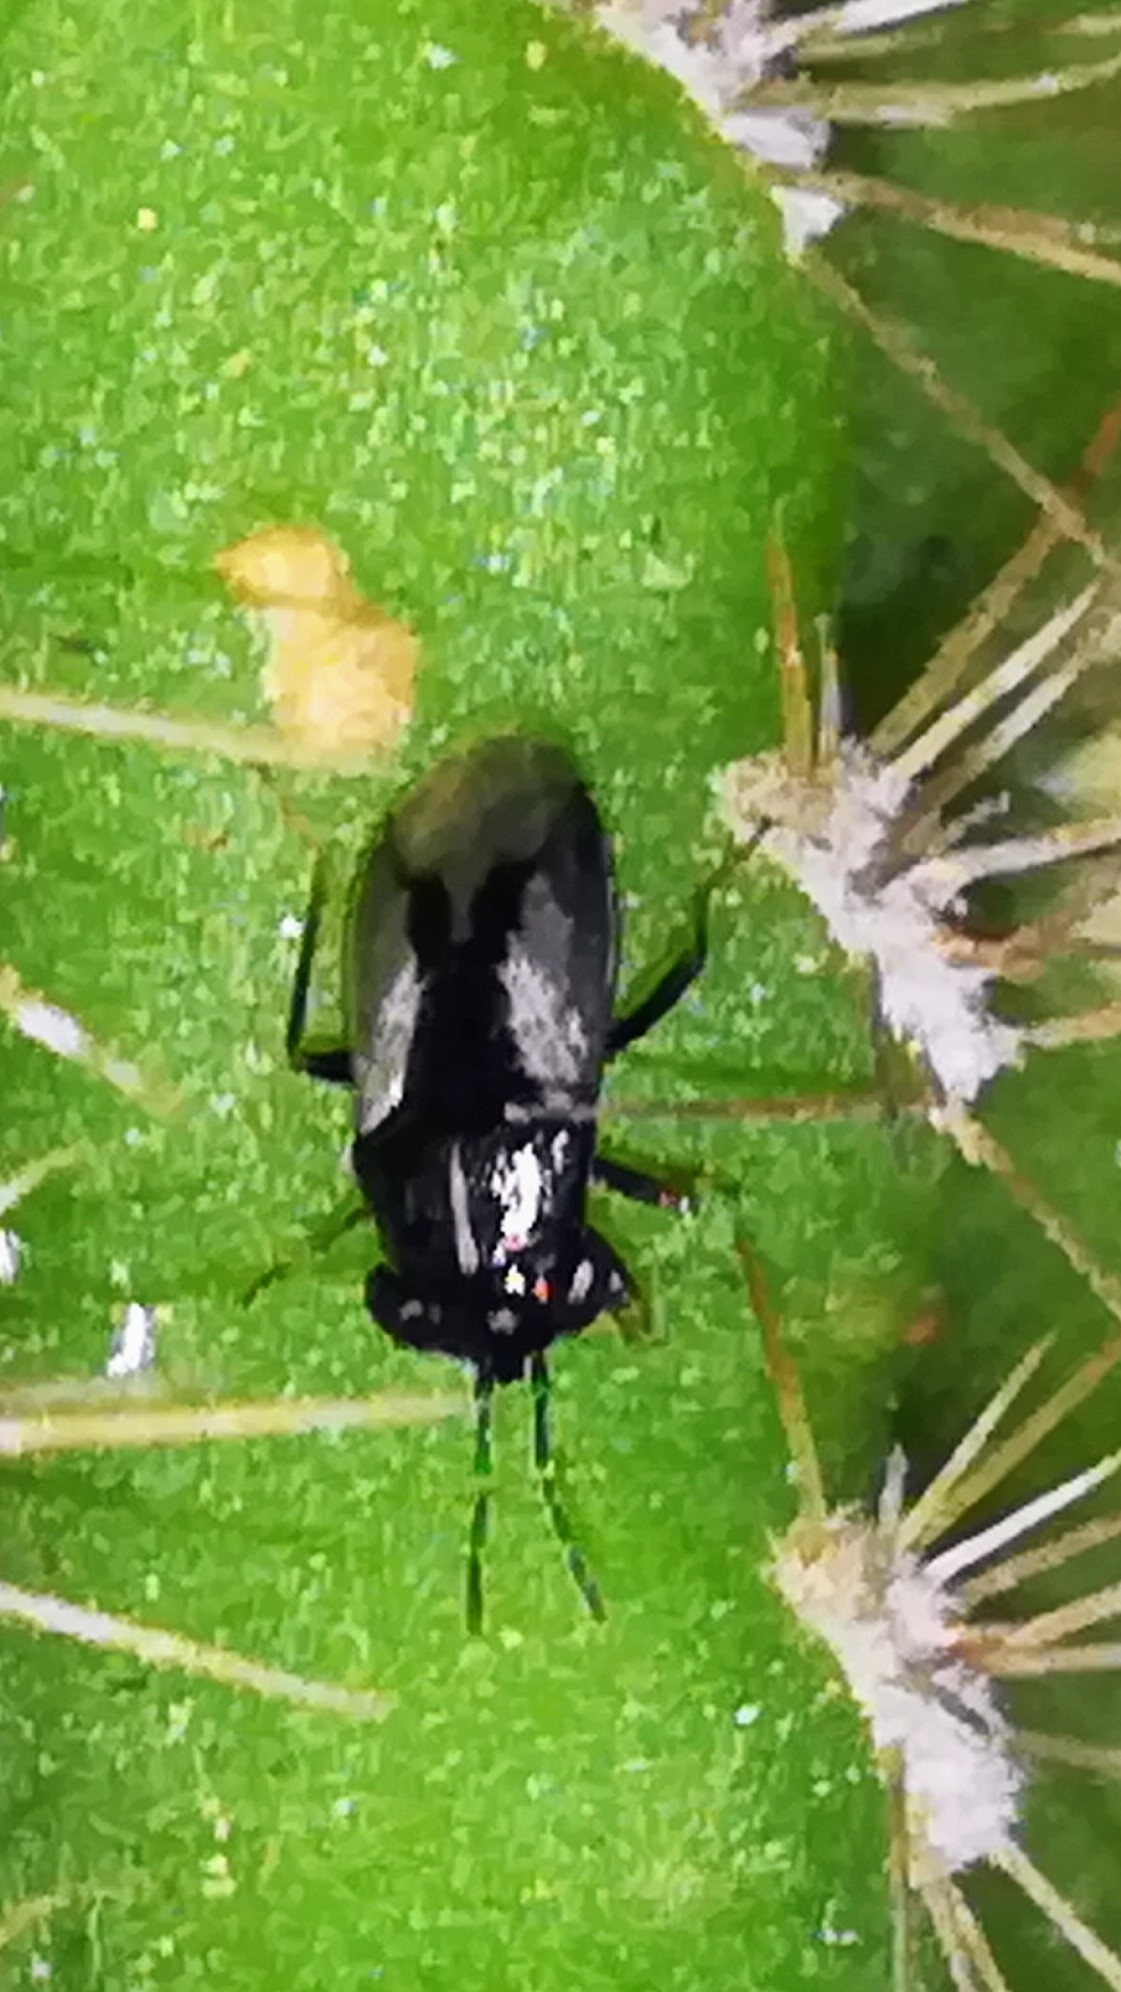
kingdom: Animalia
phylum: Arthropoda
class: Insecta
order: Hemiptera
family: Geocoridae
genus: Geocoris
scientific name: Geocoris lineolus
